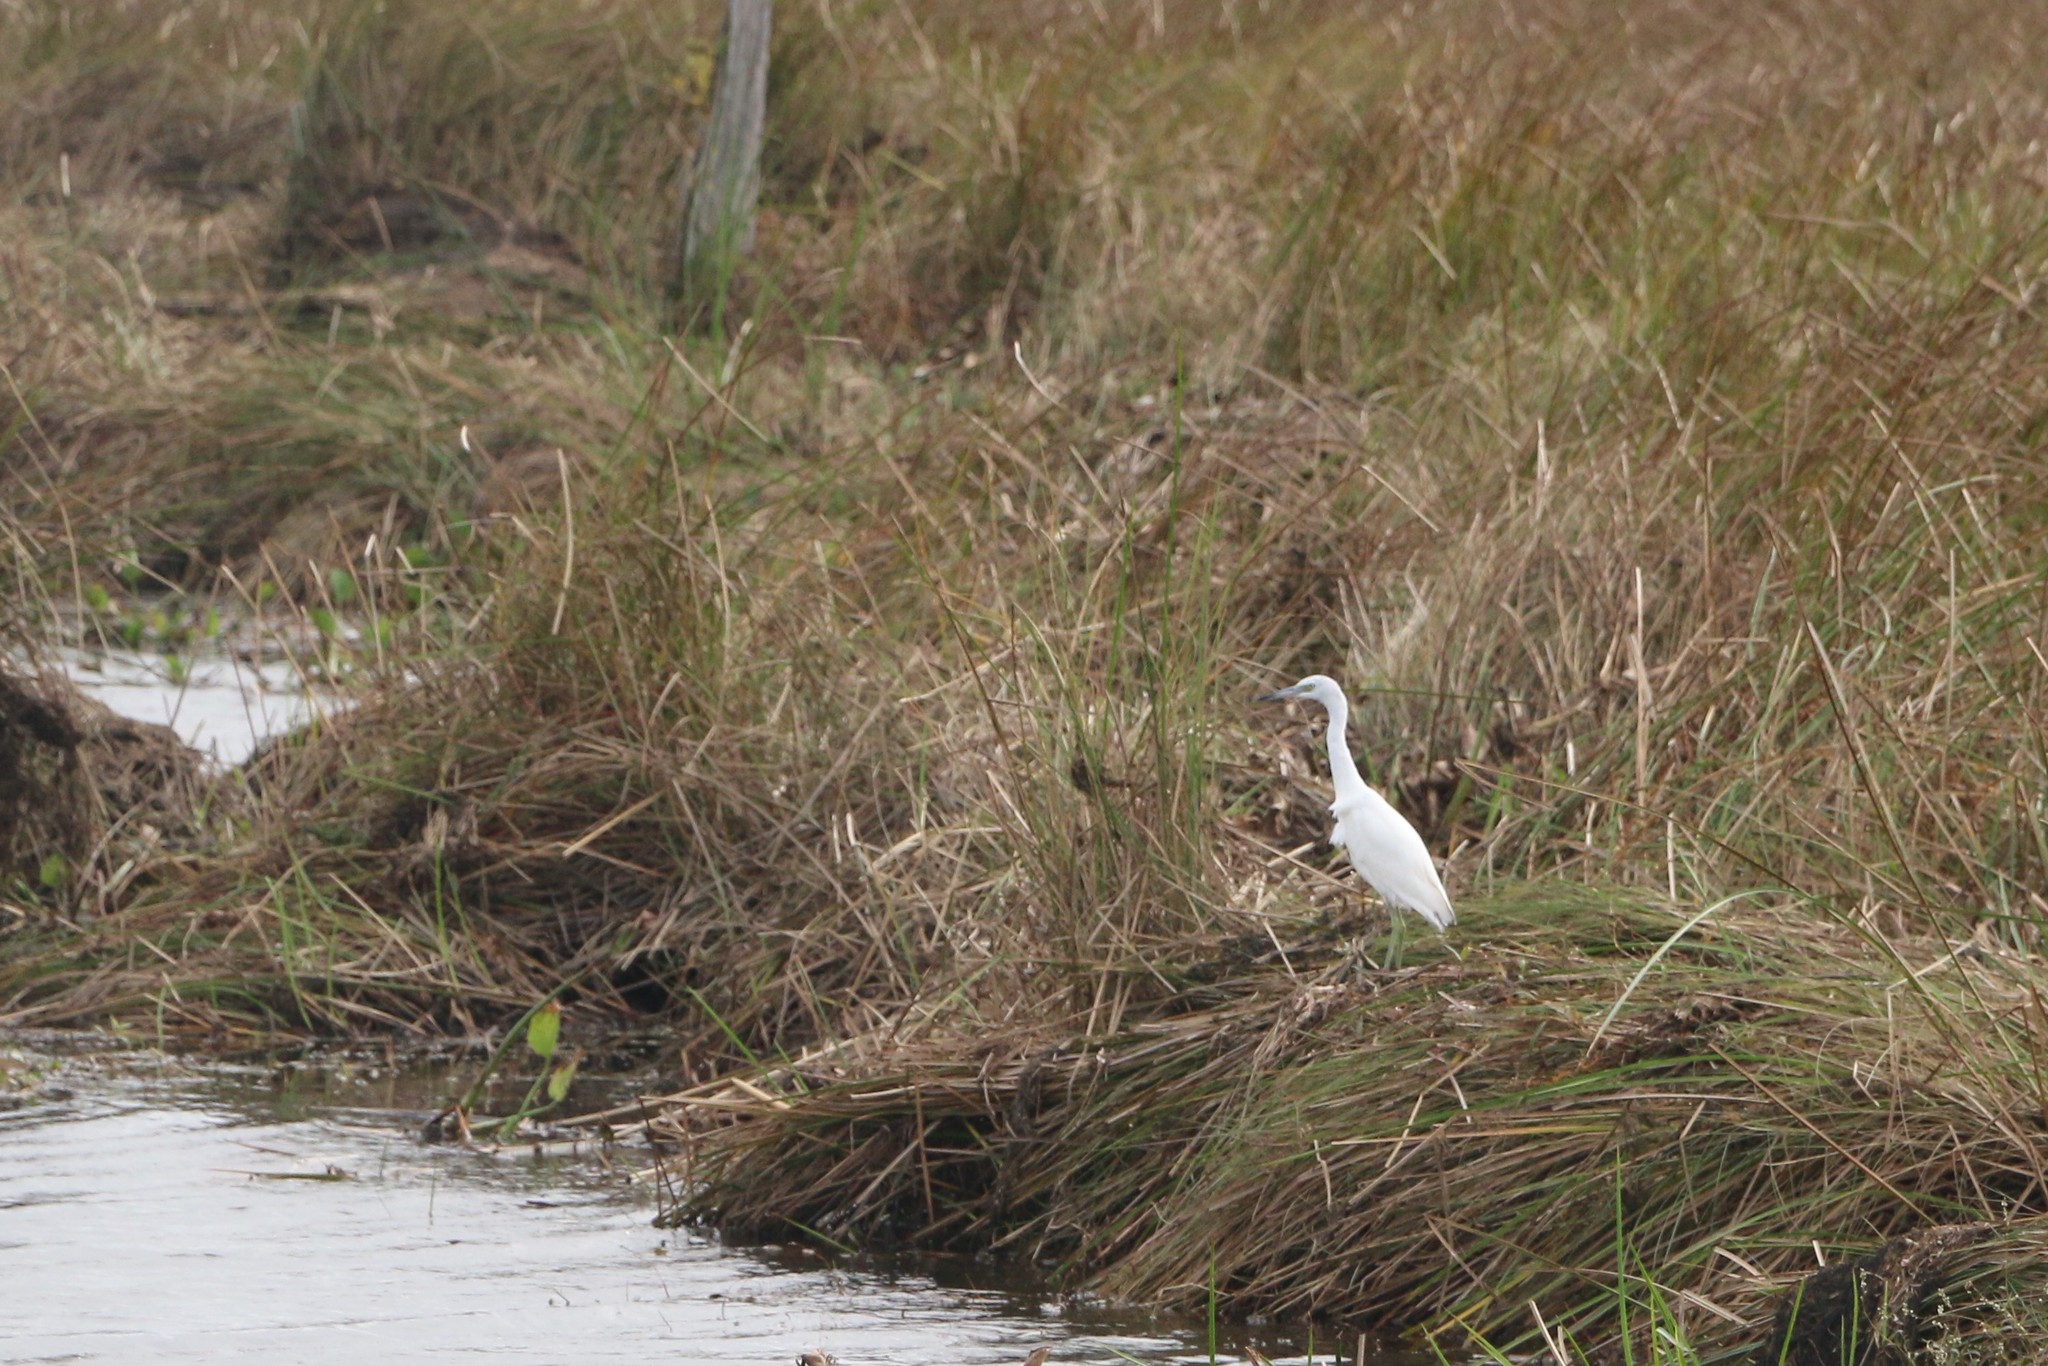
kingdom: Animalia
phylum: Chordata
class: Aves
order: Pelecaniformes
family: Ardeidae
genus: Egretta
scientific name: Egretta caerulea
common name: Little blue heron
